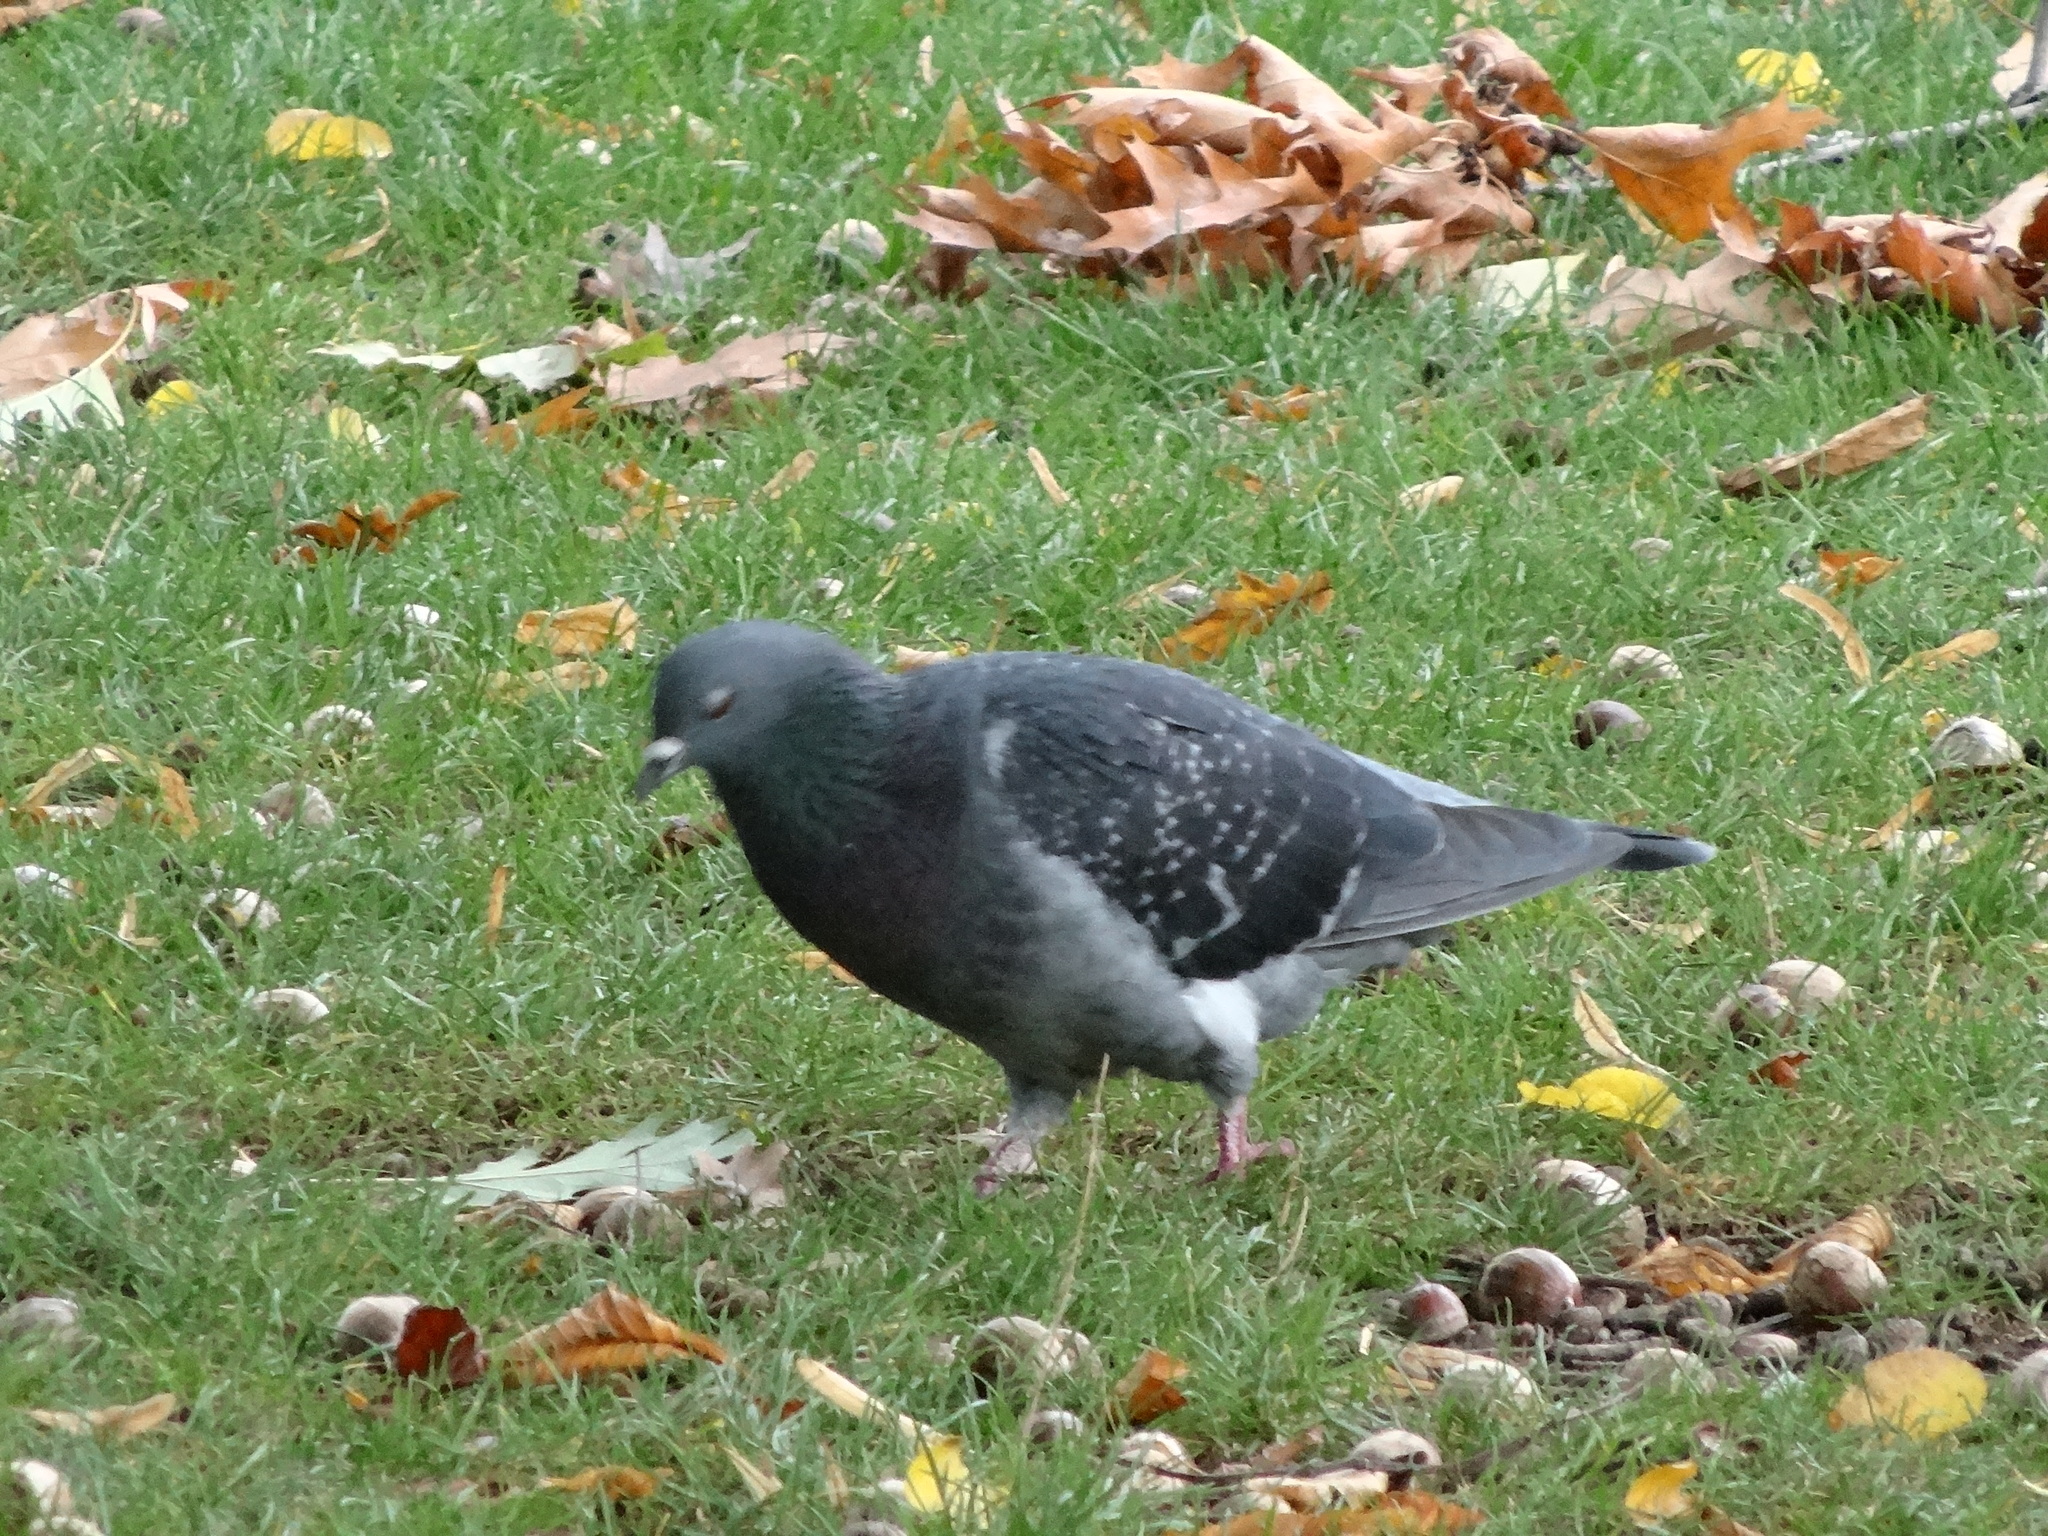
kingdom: Animalia
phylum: Chordata
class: Aves
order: Columbiformes
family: Columbidae
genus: Columba
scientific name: Columba livia
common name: Rock pigeon
